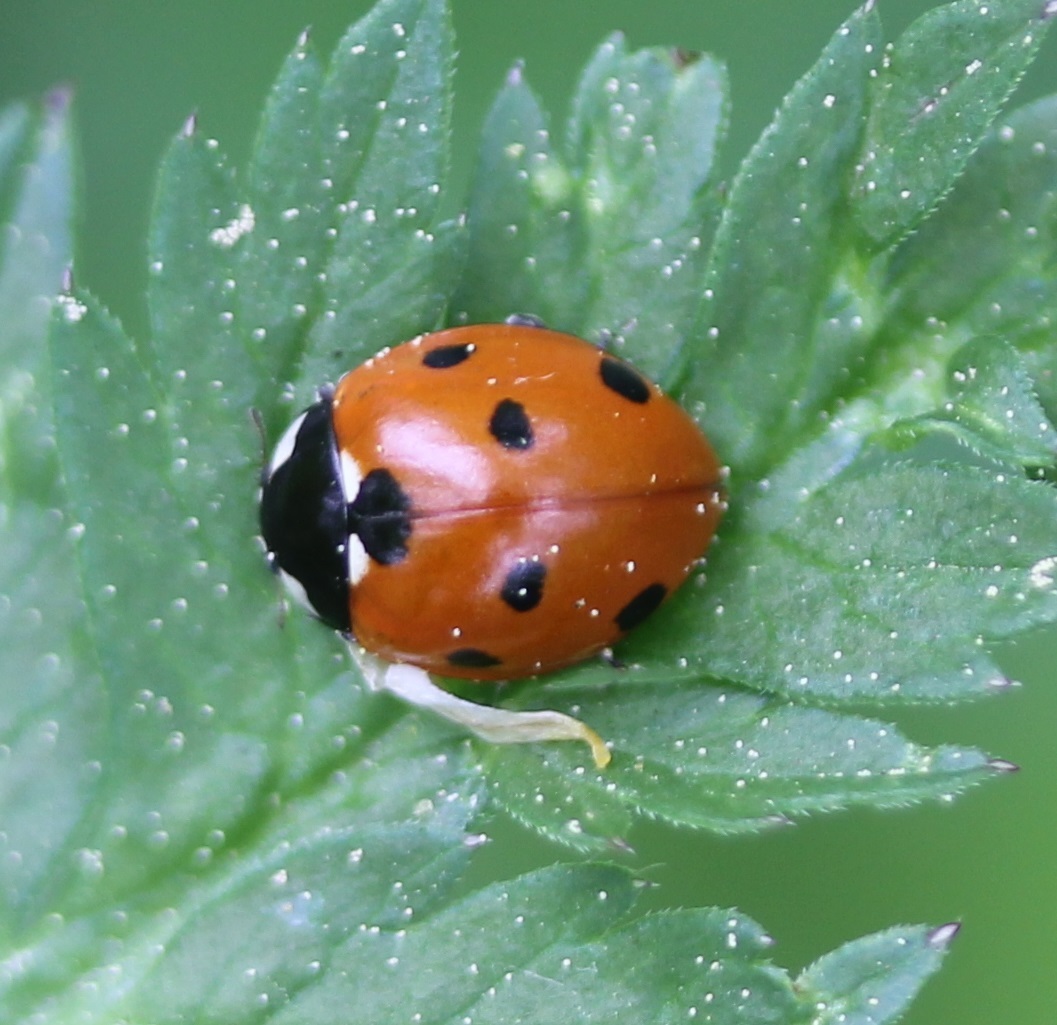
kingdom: Animalia
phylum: Arthropoda
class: Insecta
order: Coleoptera
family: Coccinellidae
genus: Coccinella
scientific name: Coccinella septempunctata
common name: Sevenspotted lady beetle
